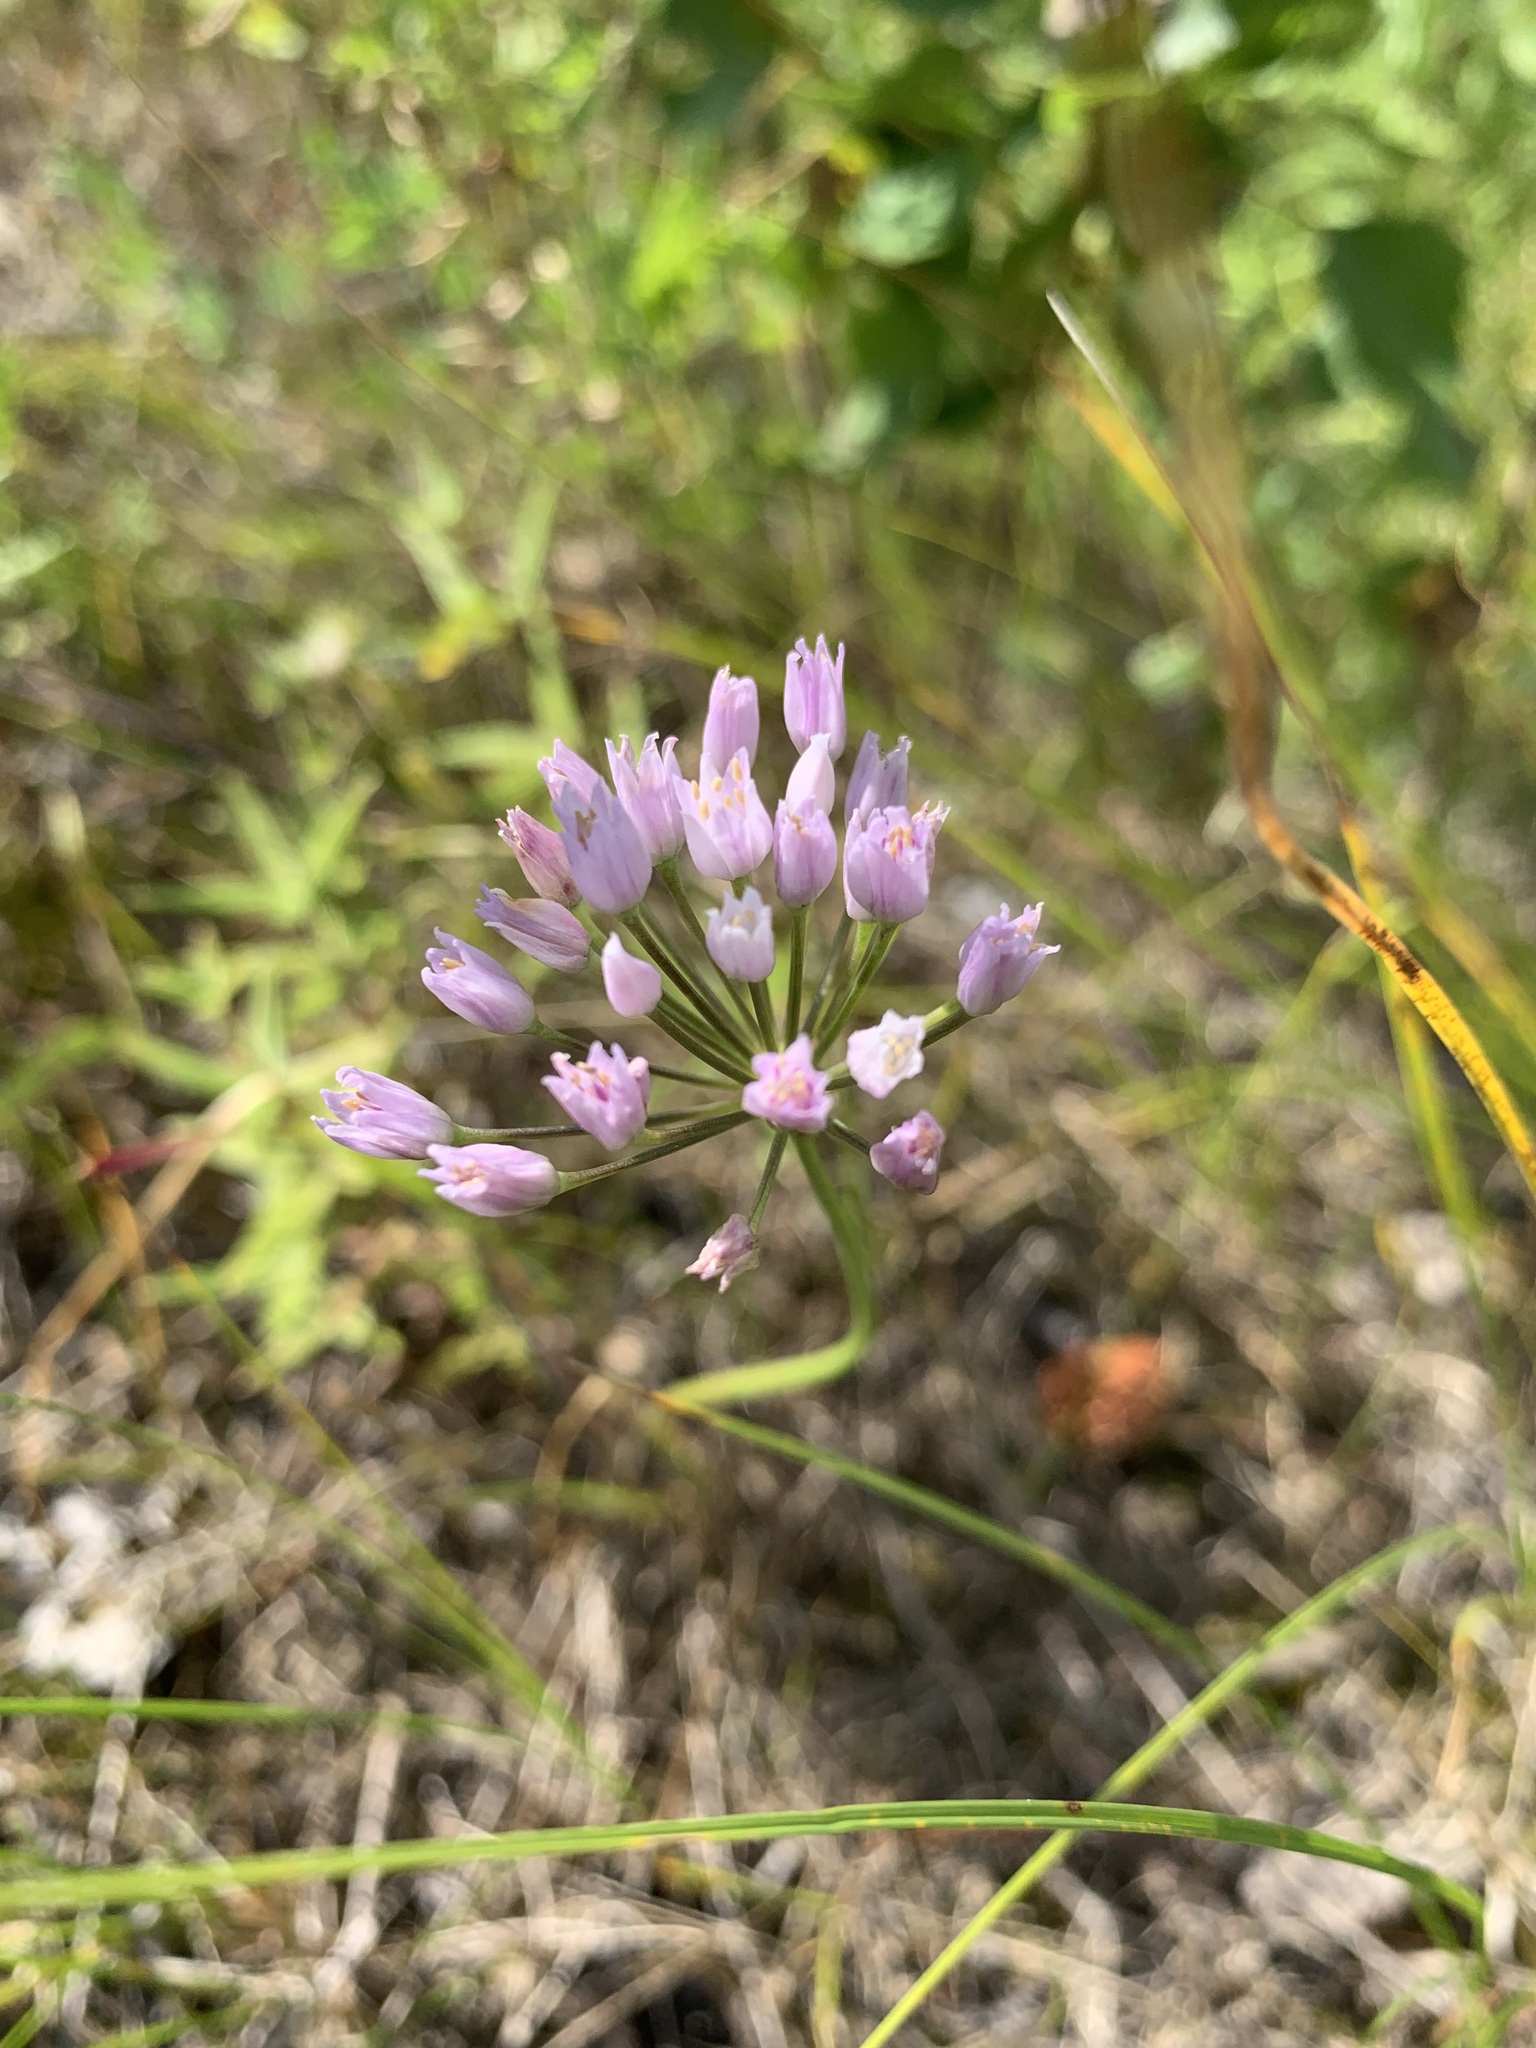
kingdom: Plantae
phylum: Tracheophyta
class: Liliopsida
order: Asparagales
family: Amaryllidaceae
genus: Allium
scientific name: Allium angulosum
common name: Mouse garlic
